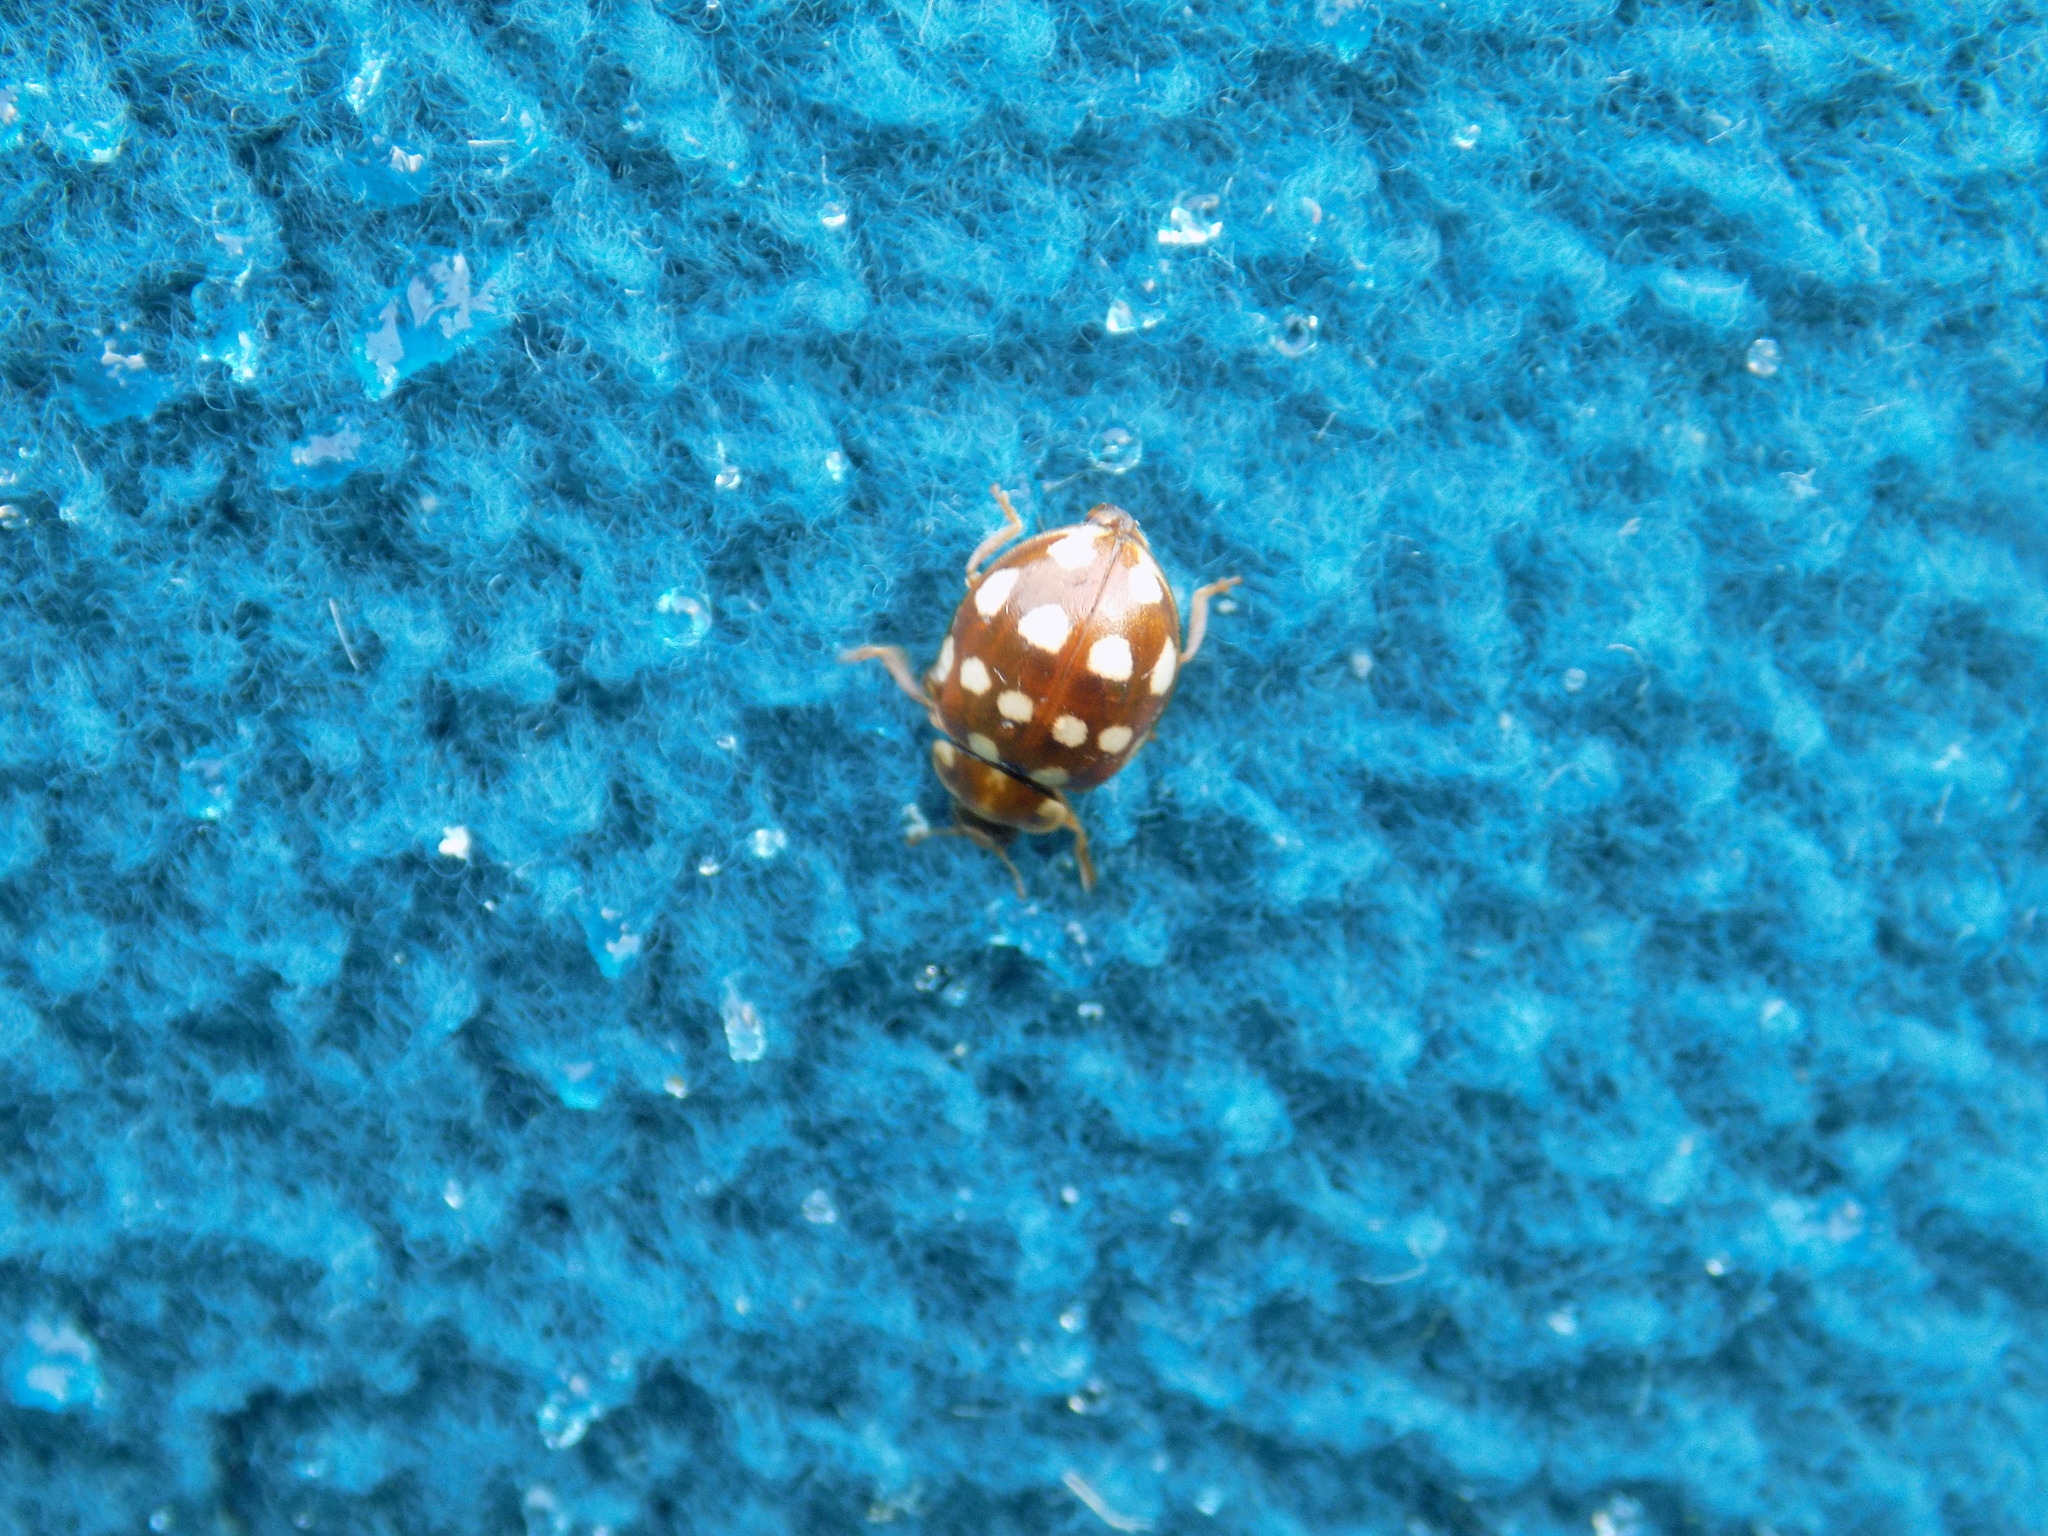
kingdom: Animalia
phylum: Arthropoda
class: Insecta
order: Coleoptera
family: Coccinellidae
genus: Calvia
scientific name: Calvia quatuordecimguttata
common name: Cream-spot ladybird
